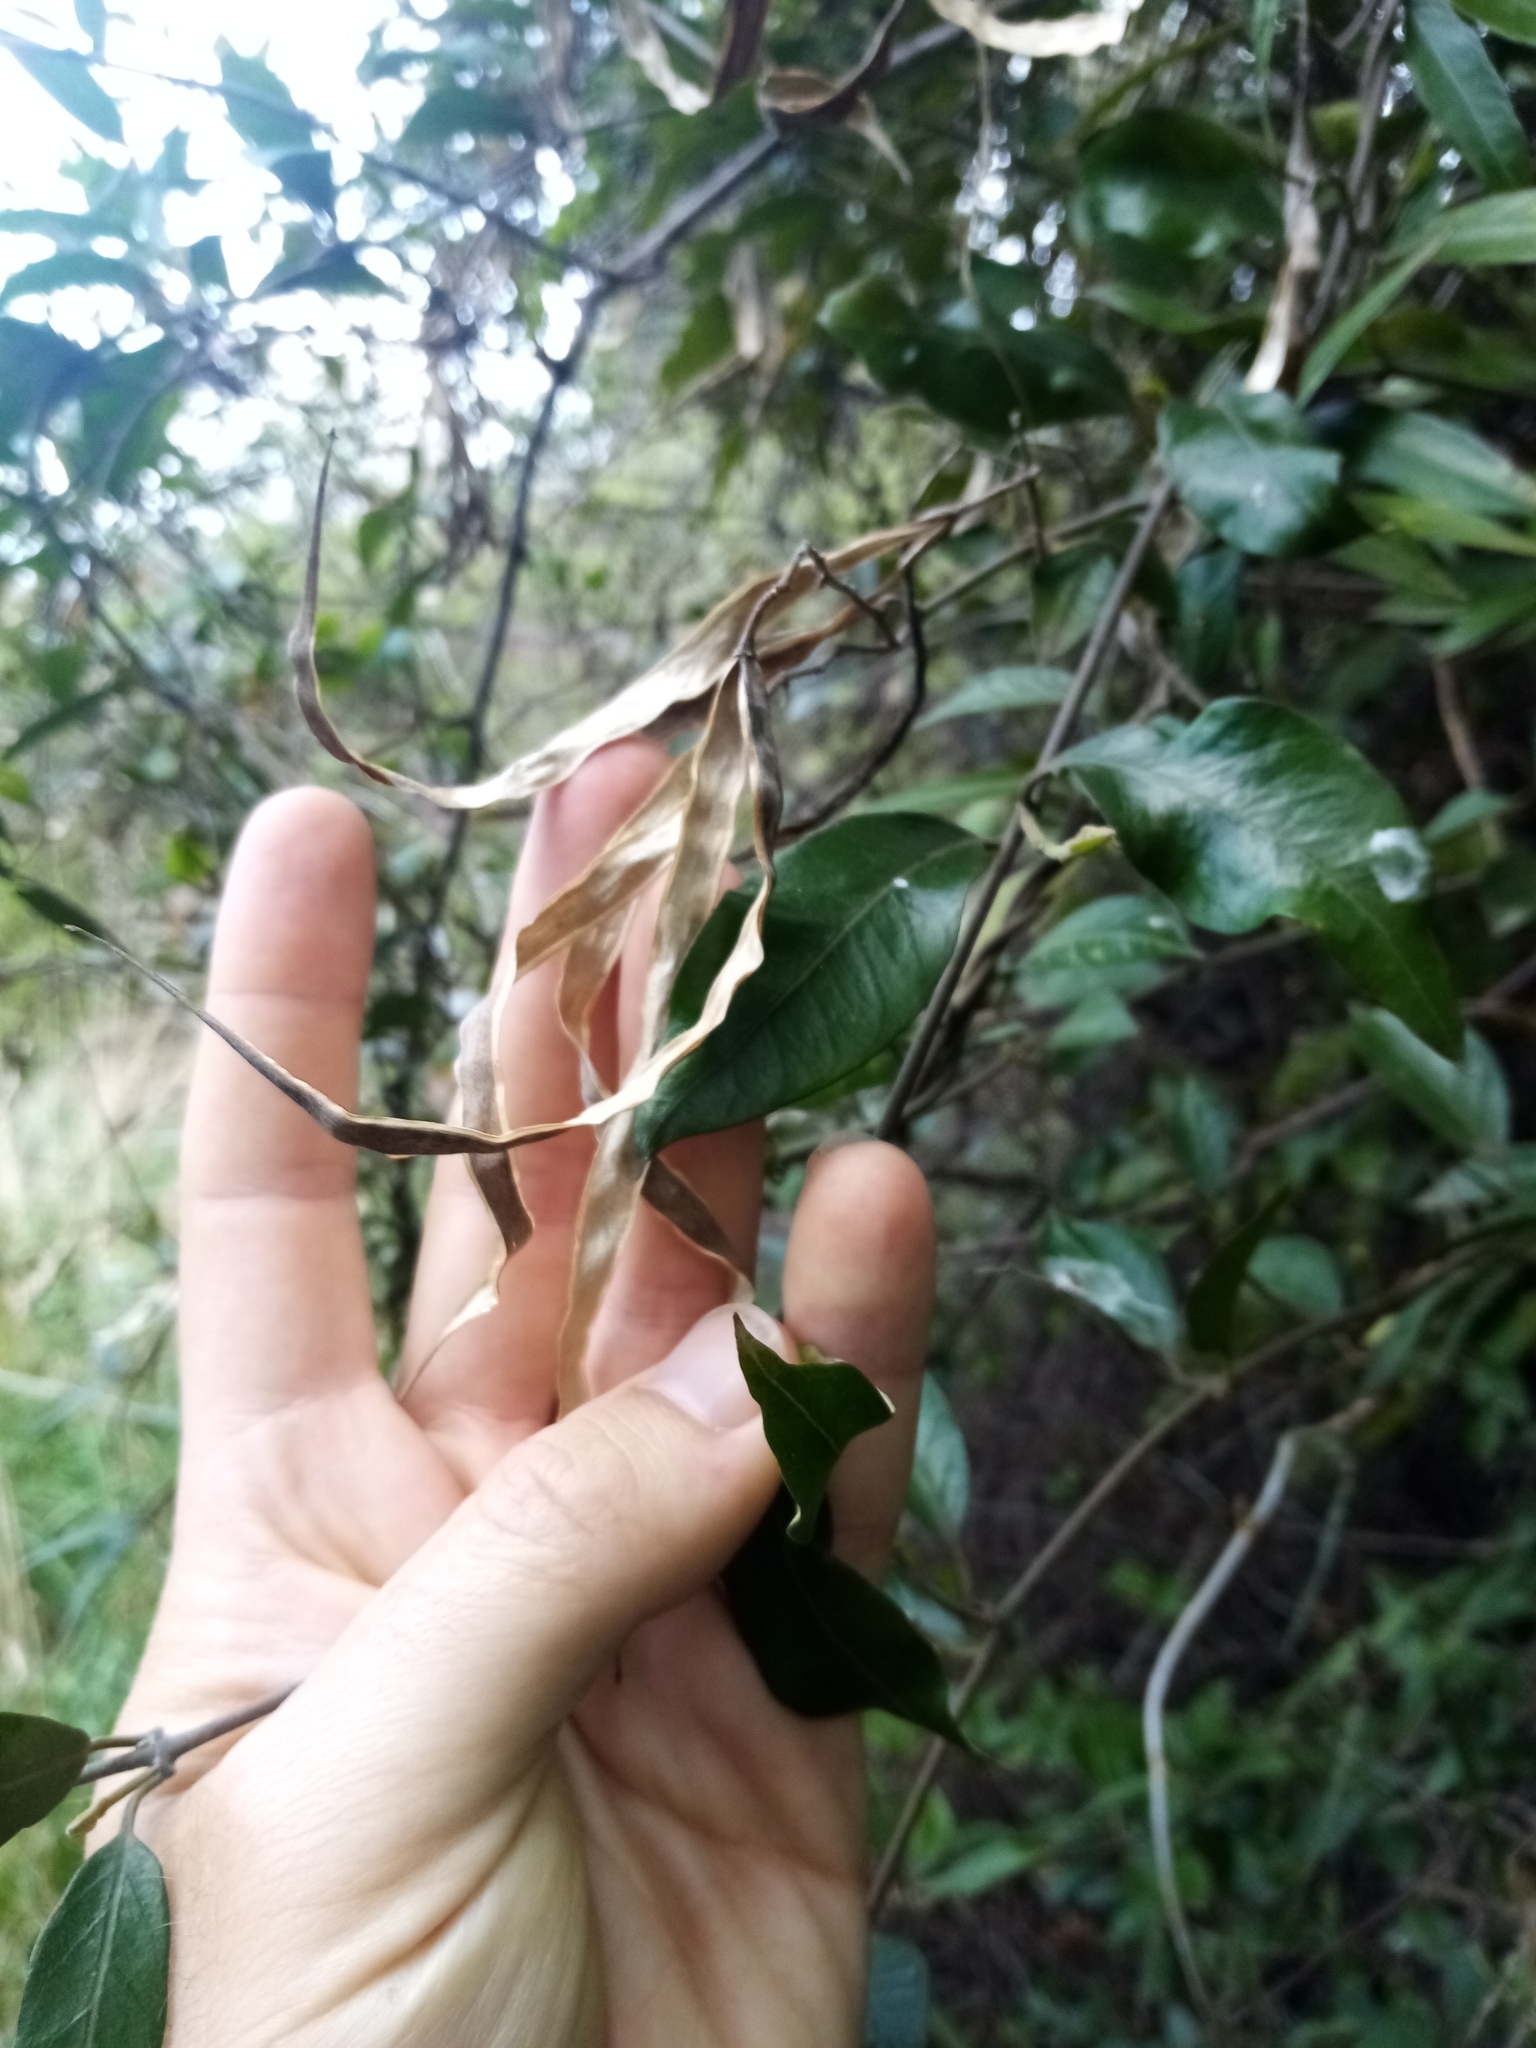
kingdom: Plantae
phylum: Tracheophyta
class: Magnoliopsida
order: Gentianales
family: Apocynaceae
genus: Parsonsia
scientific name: Parsonsia heterophylla
